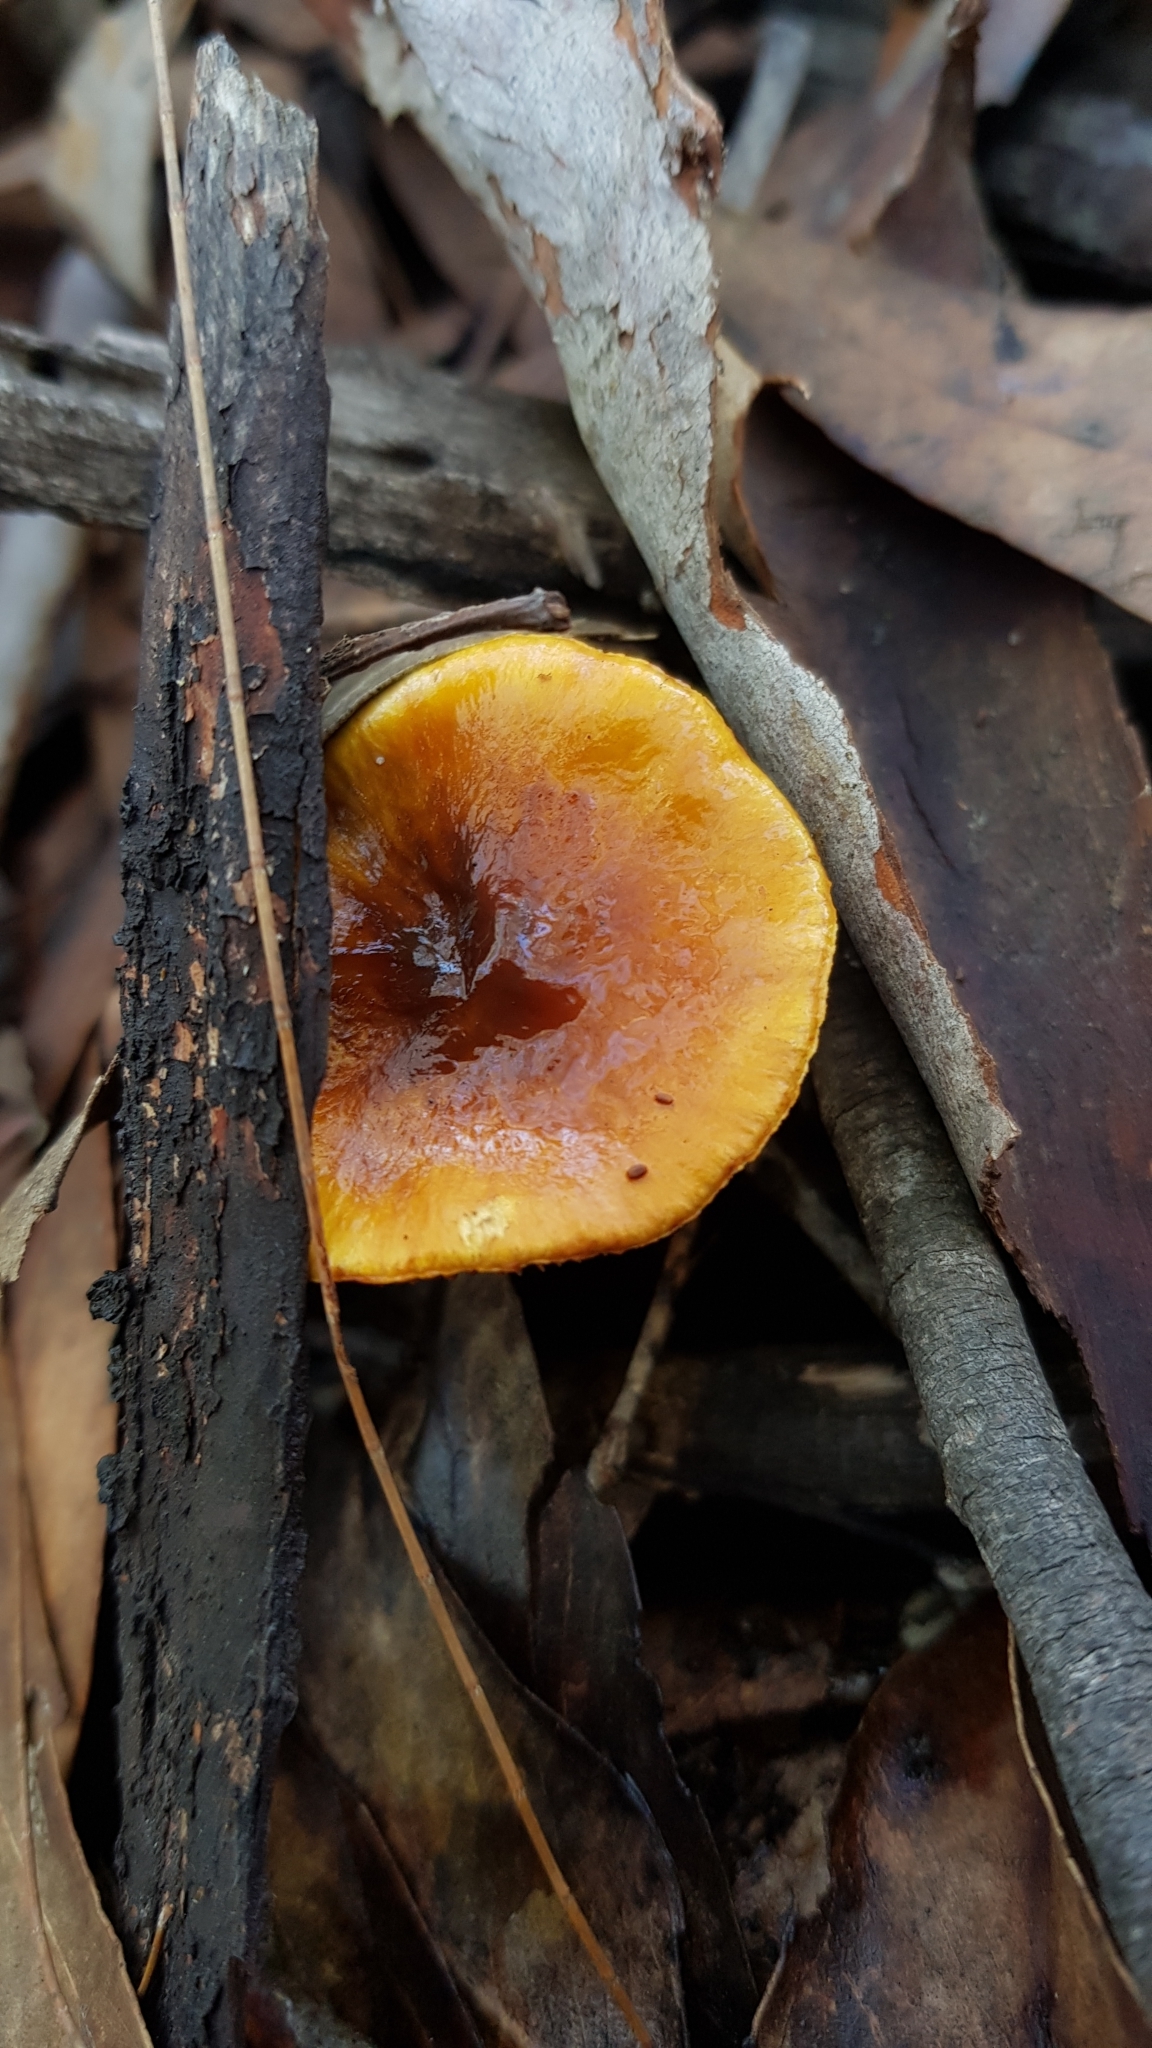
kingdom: Fungi
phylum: Basidiomycota
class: Agaricomycetes
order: Agaricales
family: Cortinariaceae
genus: Cortinarius
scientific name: Cortinarius sinapicolor
